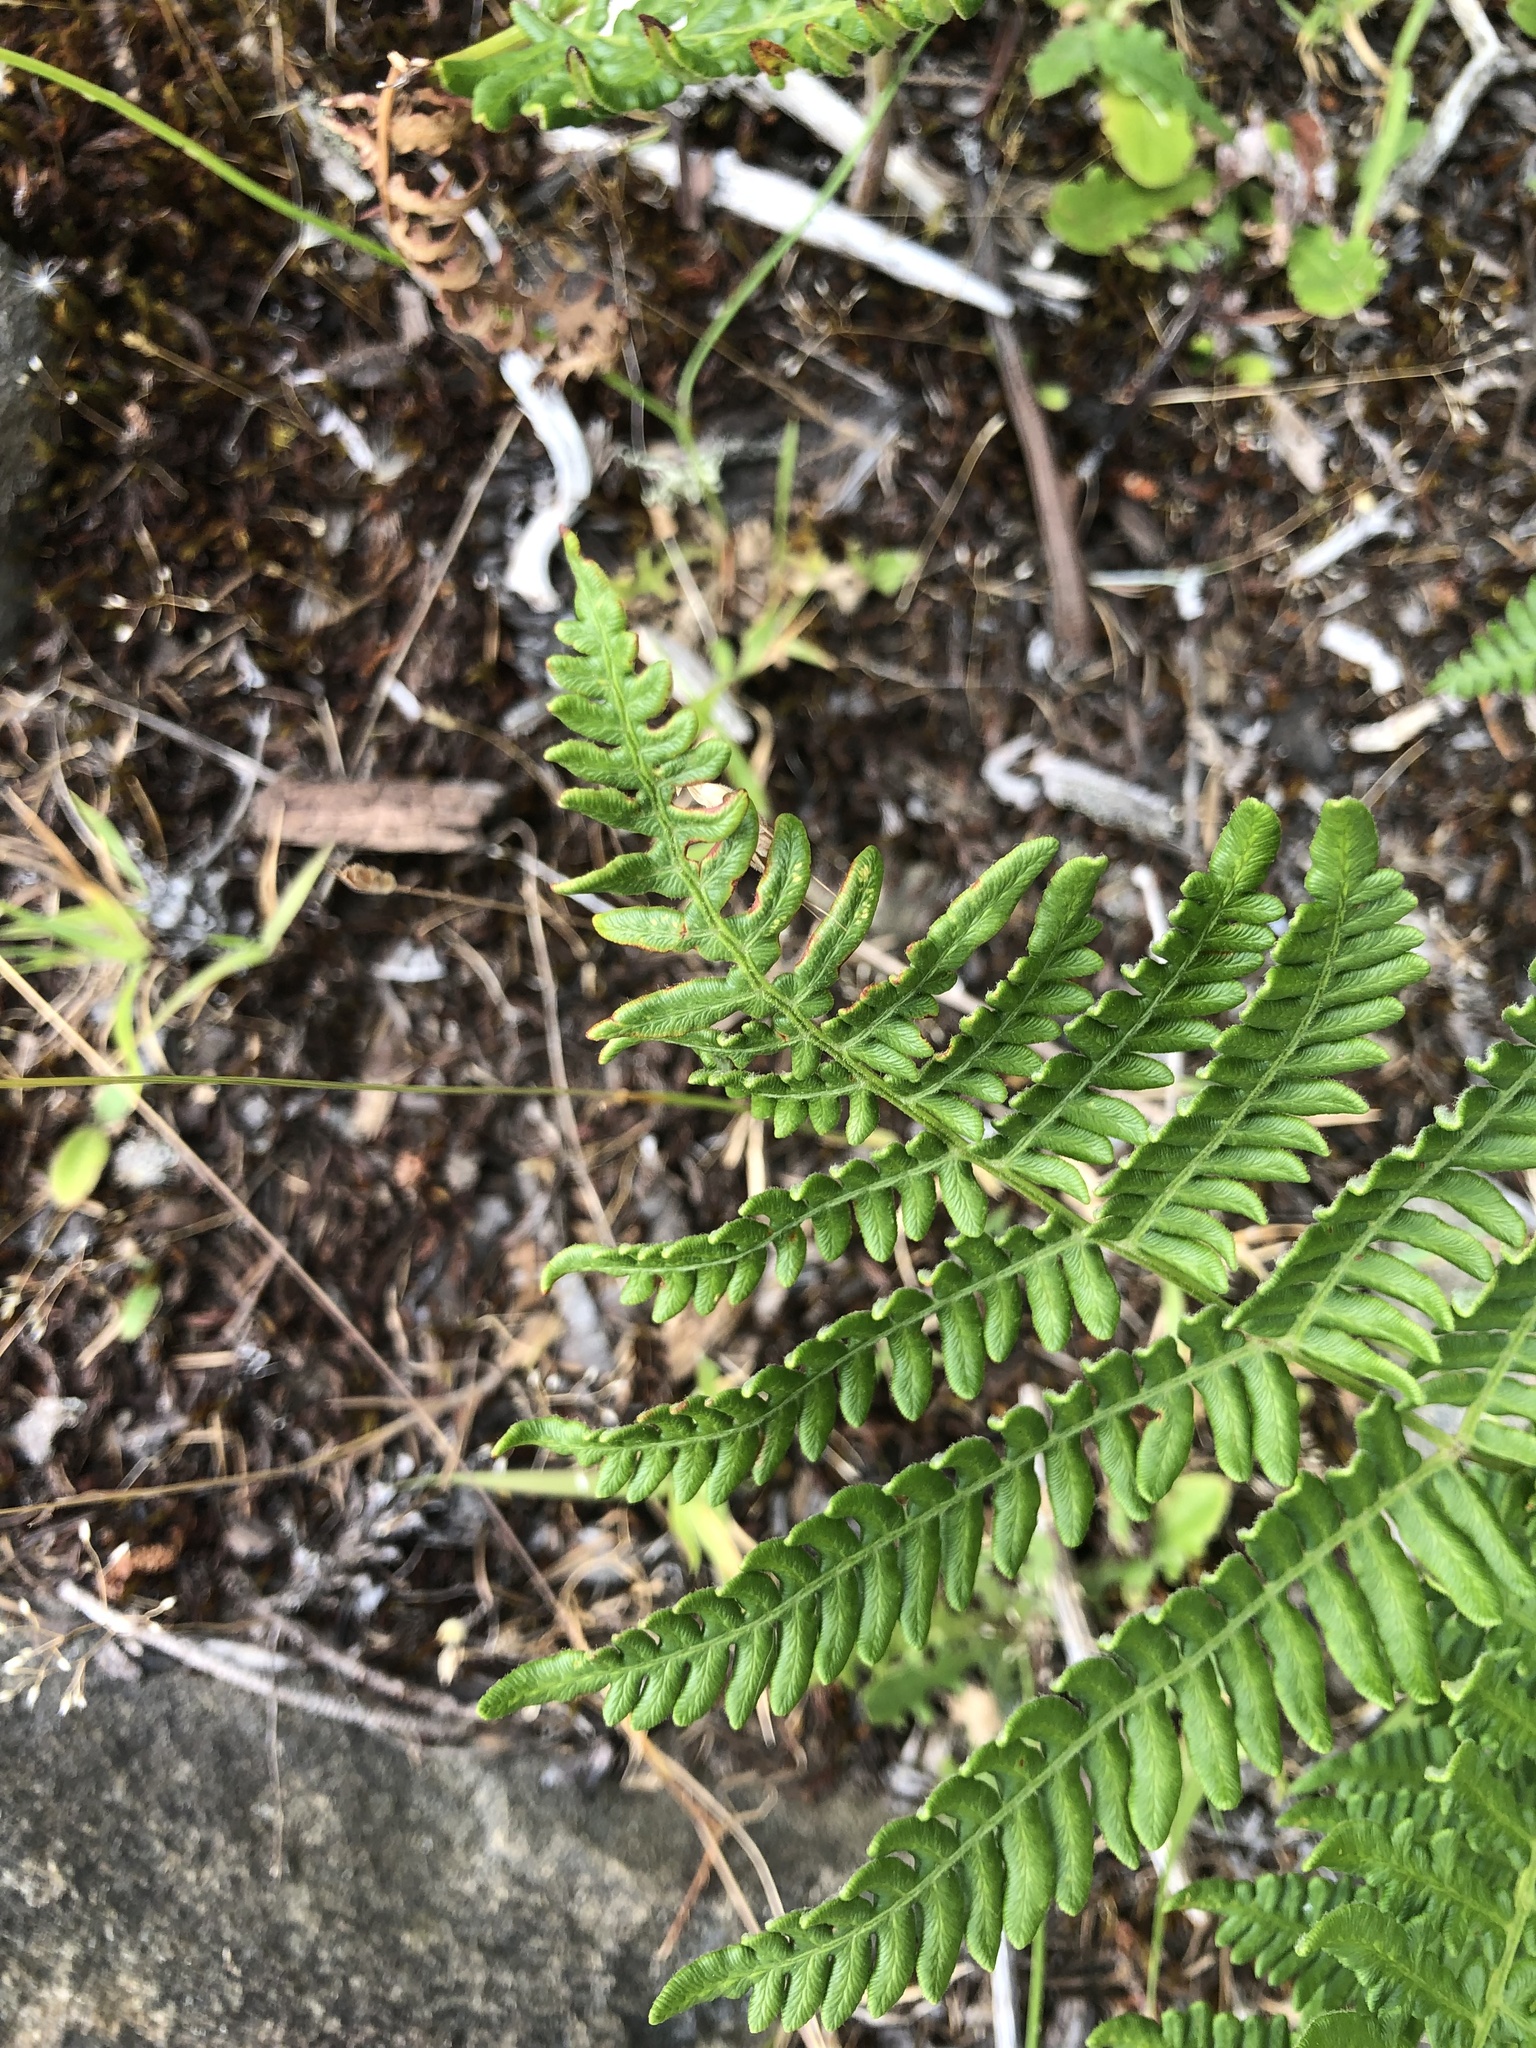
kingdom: Plantae
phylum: Tracheophyta
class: Polypodiopsida
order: Polypodiales
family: Dennstaedtiaceae
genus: Pteridium
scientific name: Pteridium aquilinum
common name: Bracken
